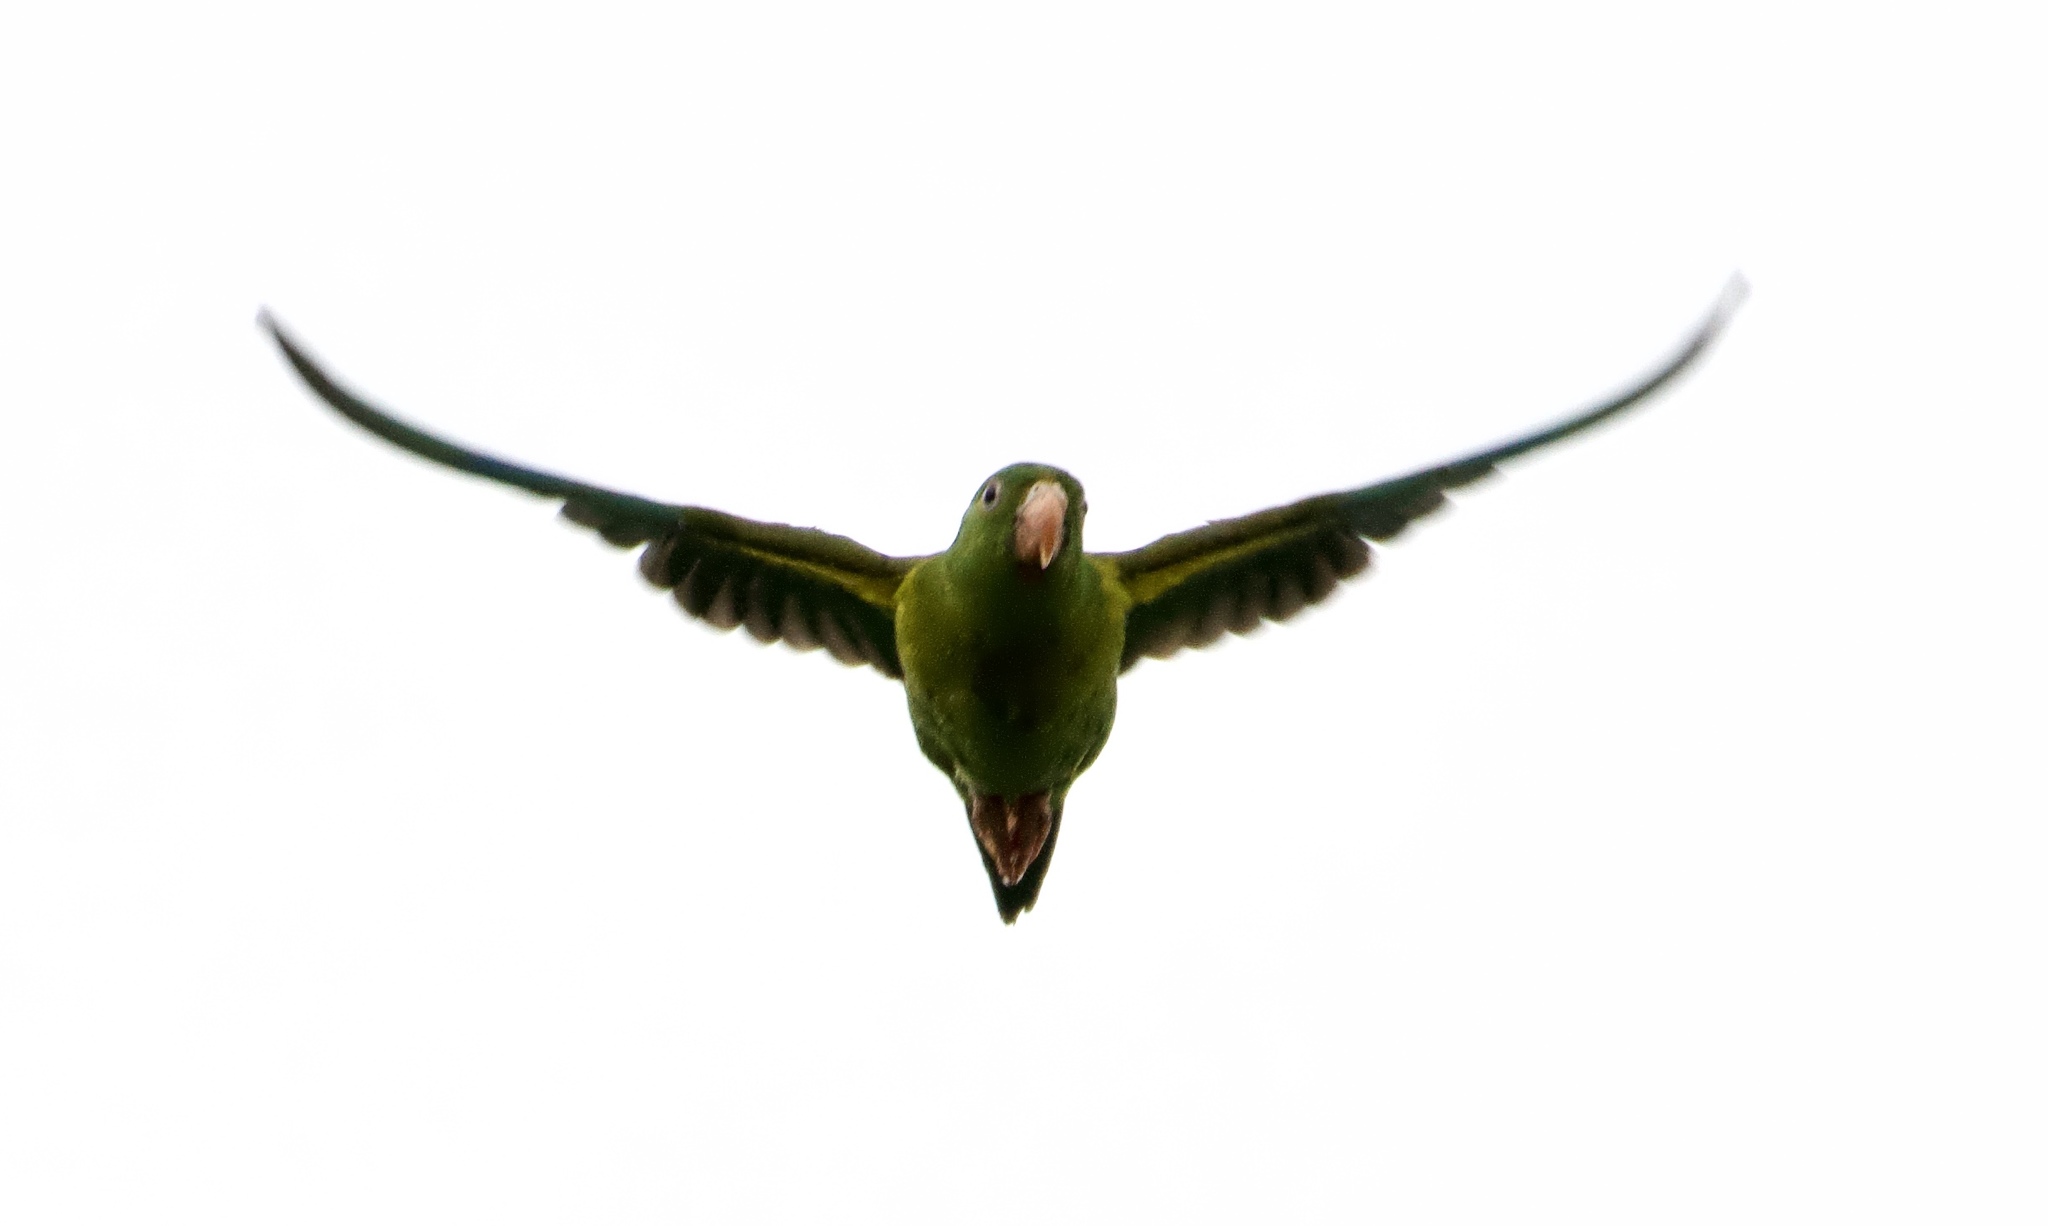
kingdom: Animalia
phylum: Chordata
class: Aves
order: Psittaciformes
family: Psittacidae
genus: Brotogeris
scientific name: Brotogeris jugularis
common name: Orange-chinned parakeet
